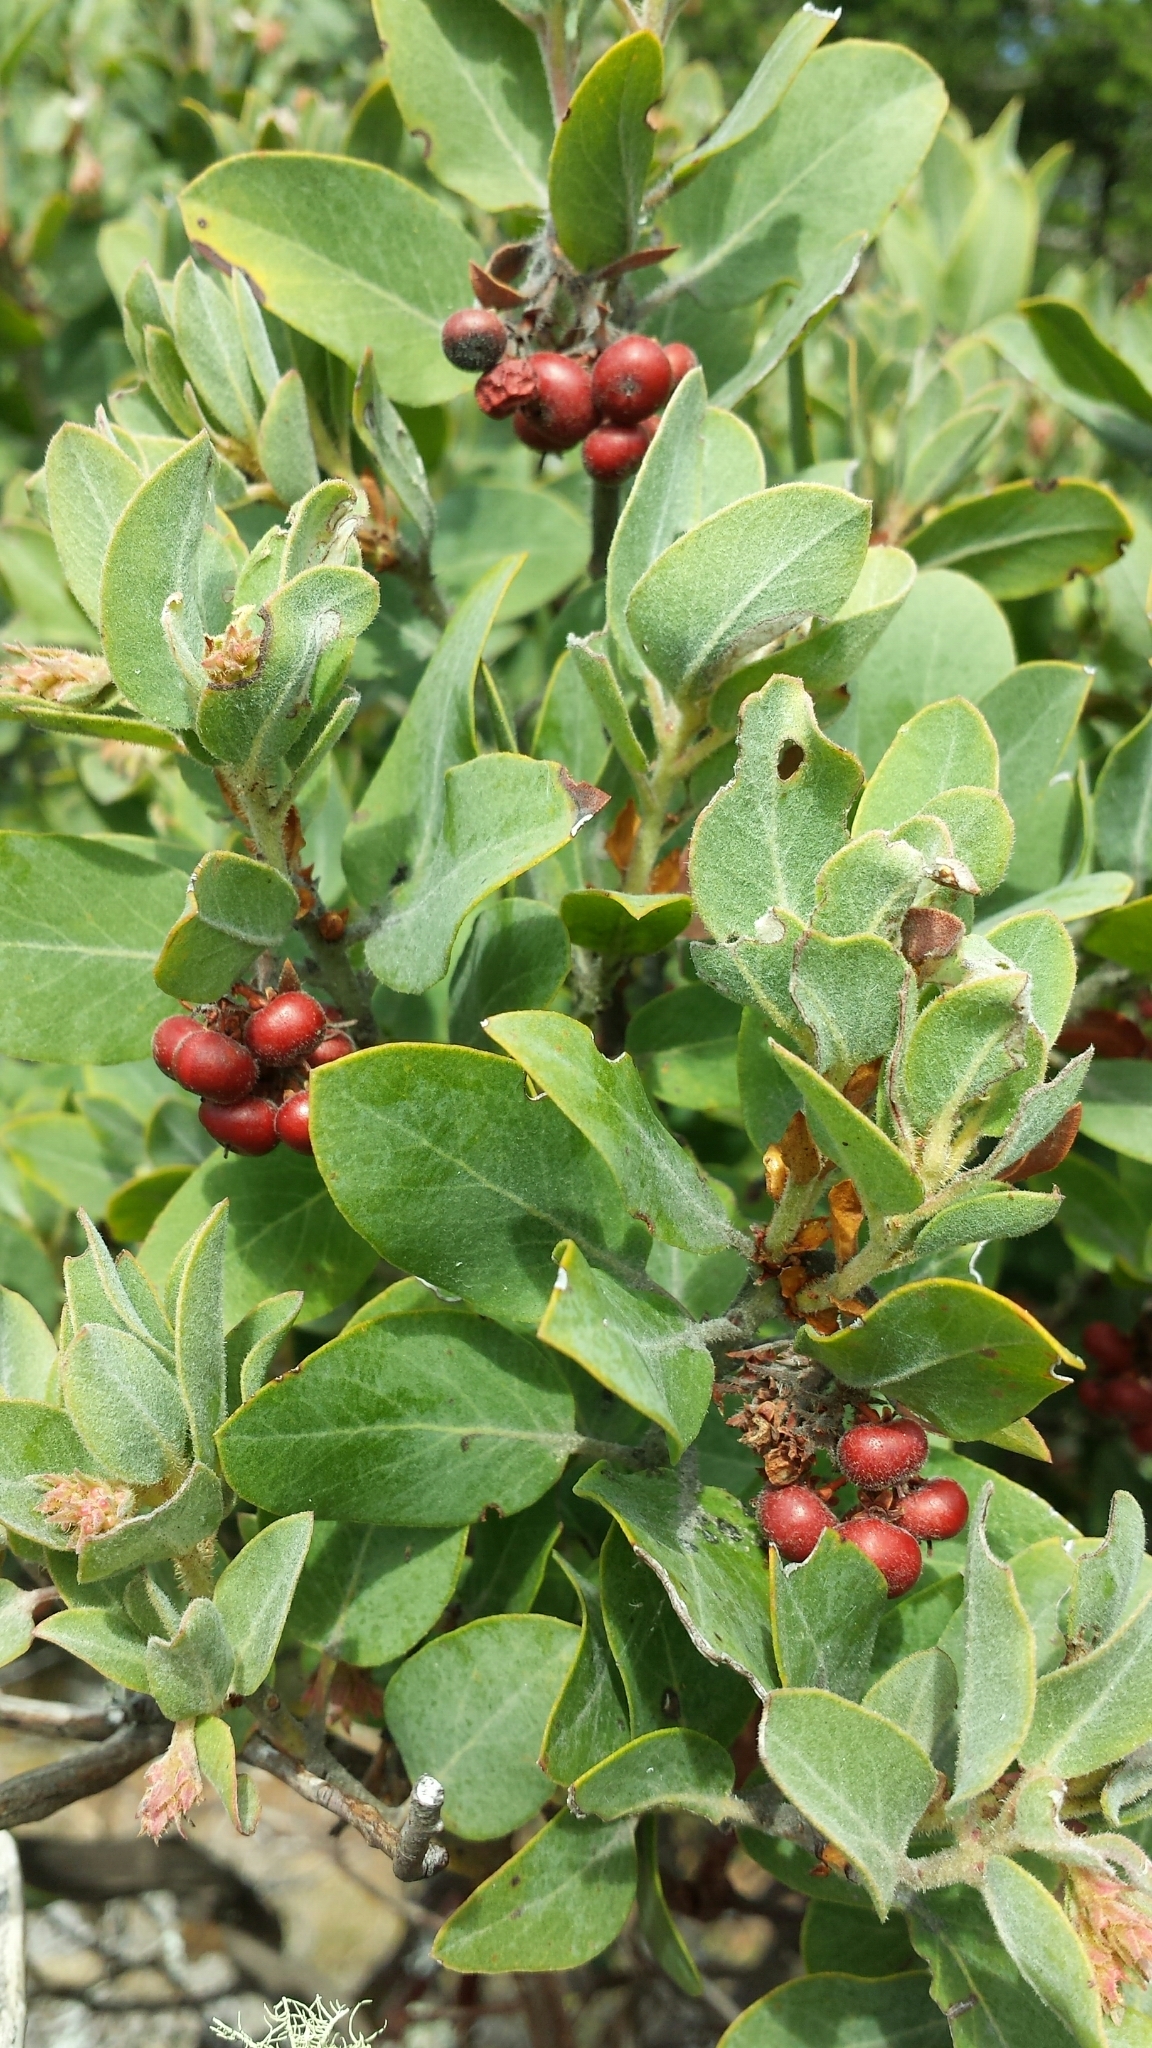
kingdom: Plantae
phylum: Tracheophyta
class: Magnoliopsida
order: Ericales
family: Ericaceae
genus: Arctostaphylos
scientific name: Arctostaphylos columbiana
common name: Bristly bearberry
